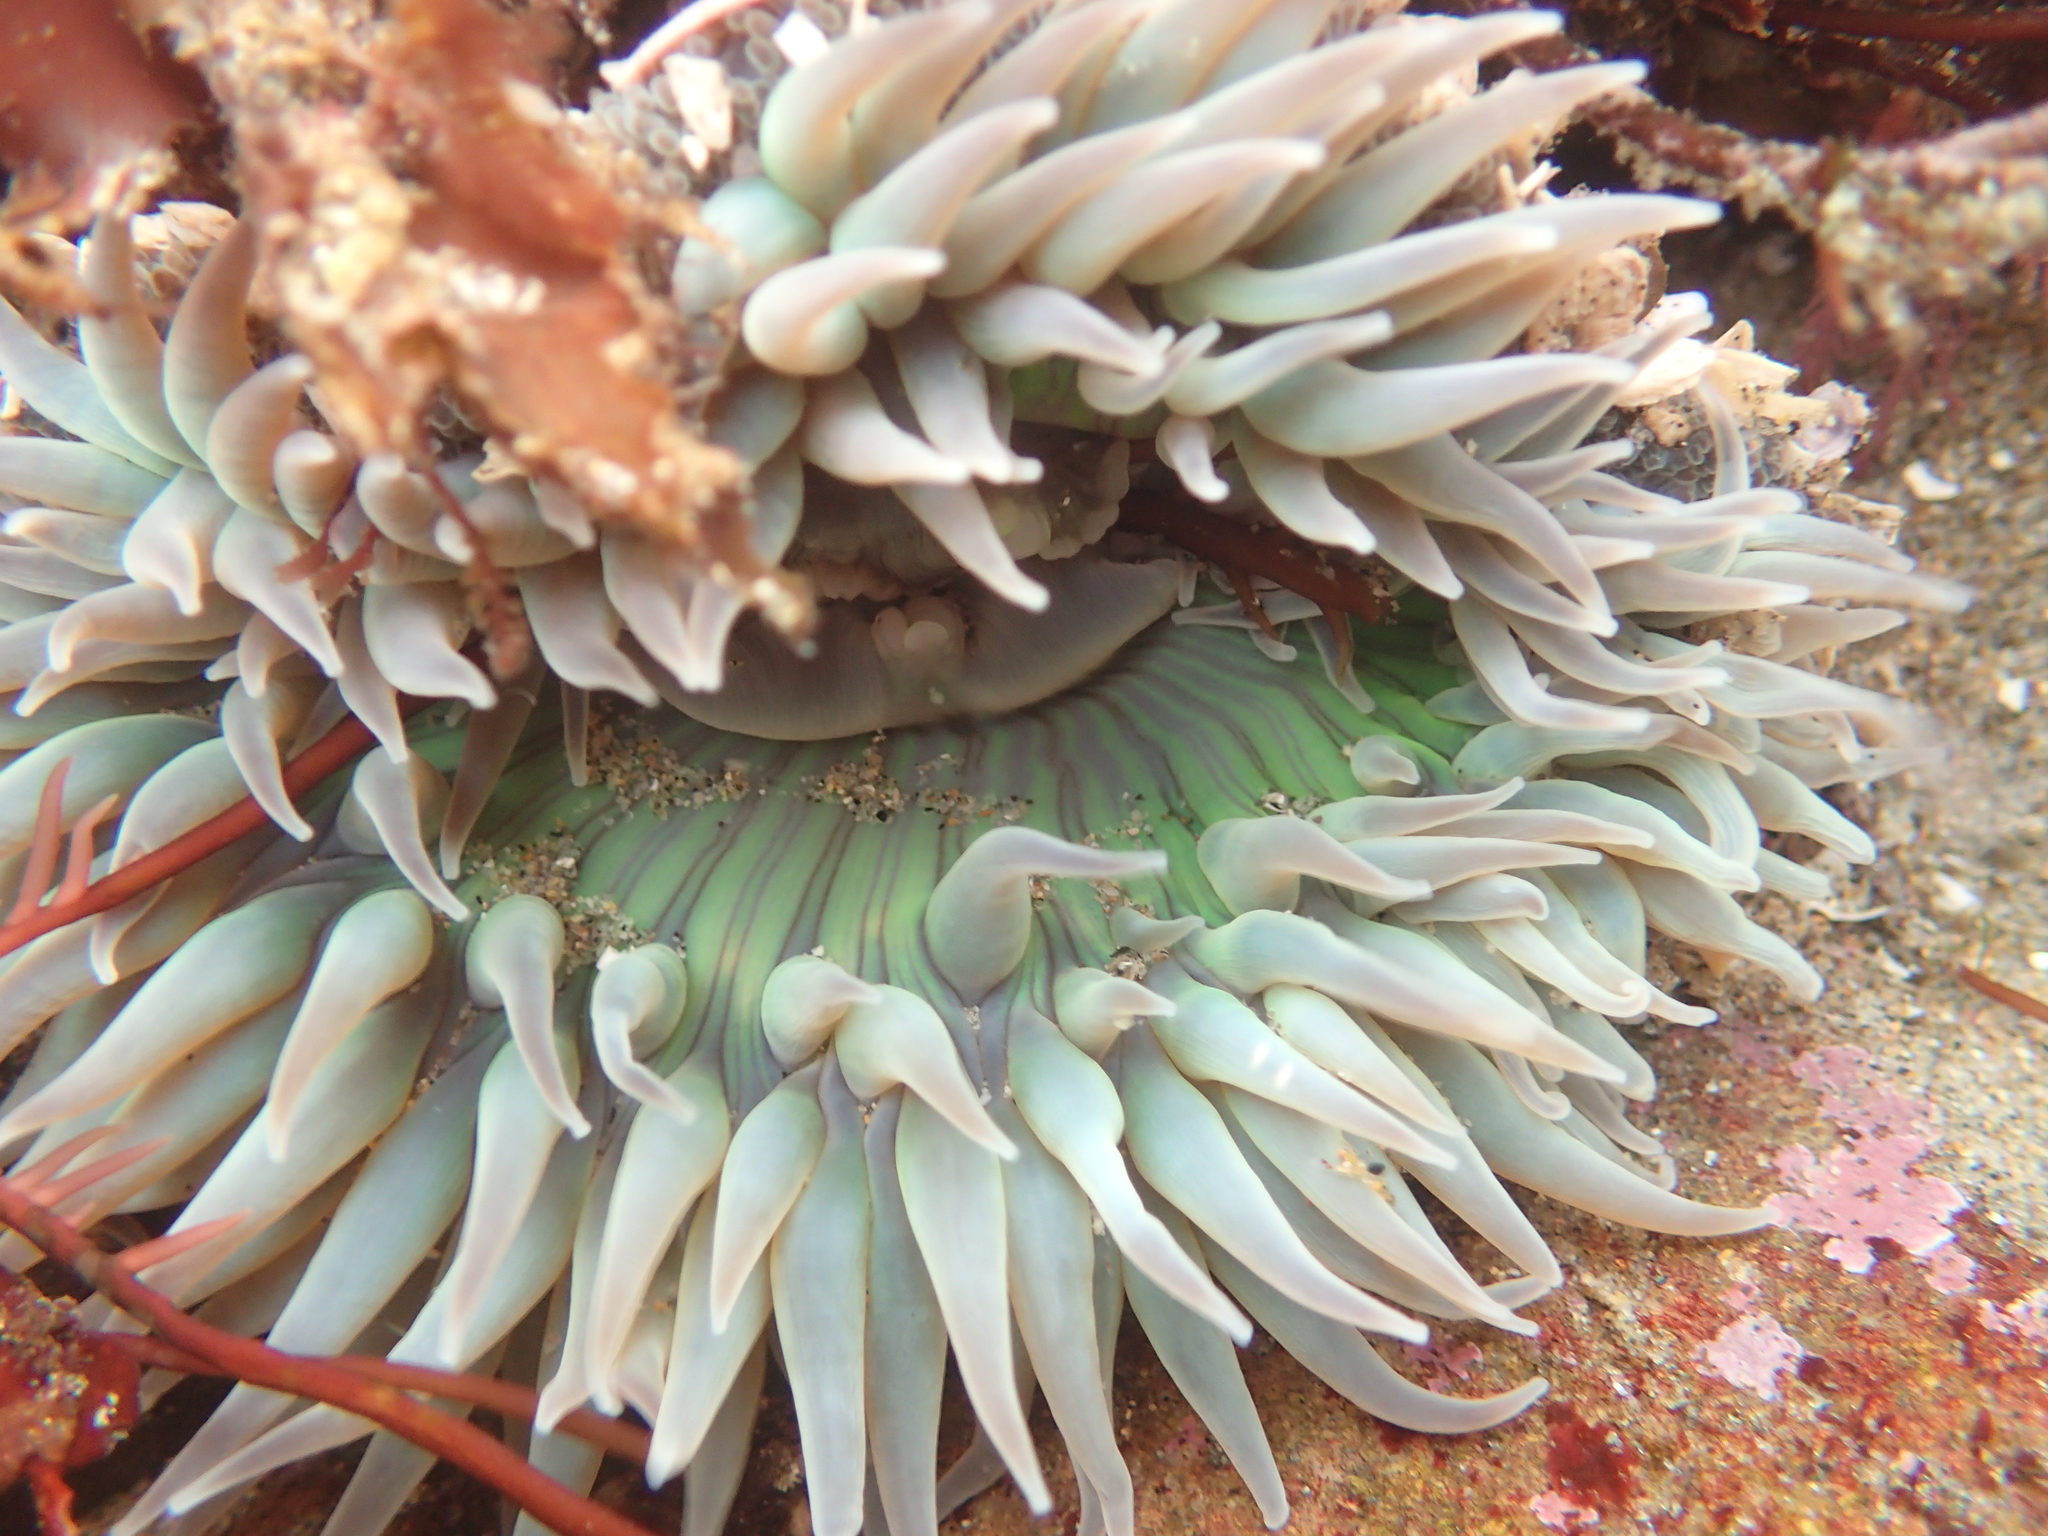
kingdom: Animalia
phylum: Cnidaria
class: Anthozoa
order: Actiniaria
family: Actiniidae
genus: Anthopleura
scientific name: Anthopleura sola
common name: Sun anemone
